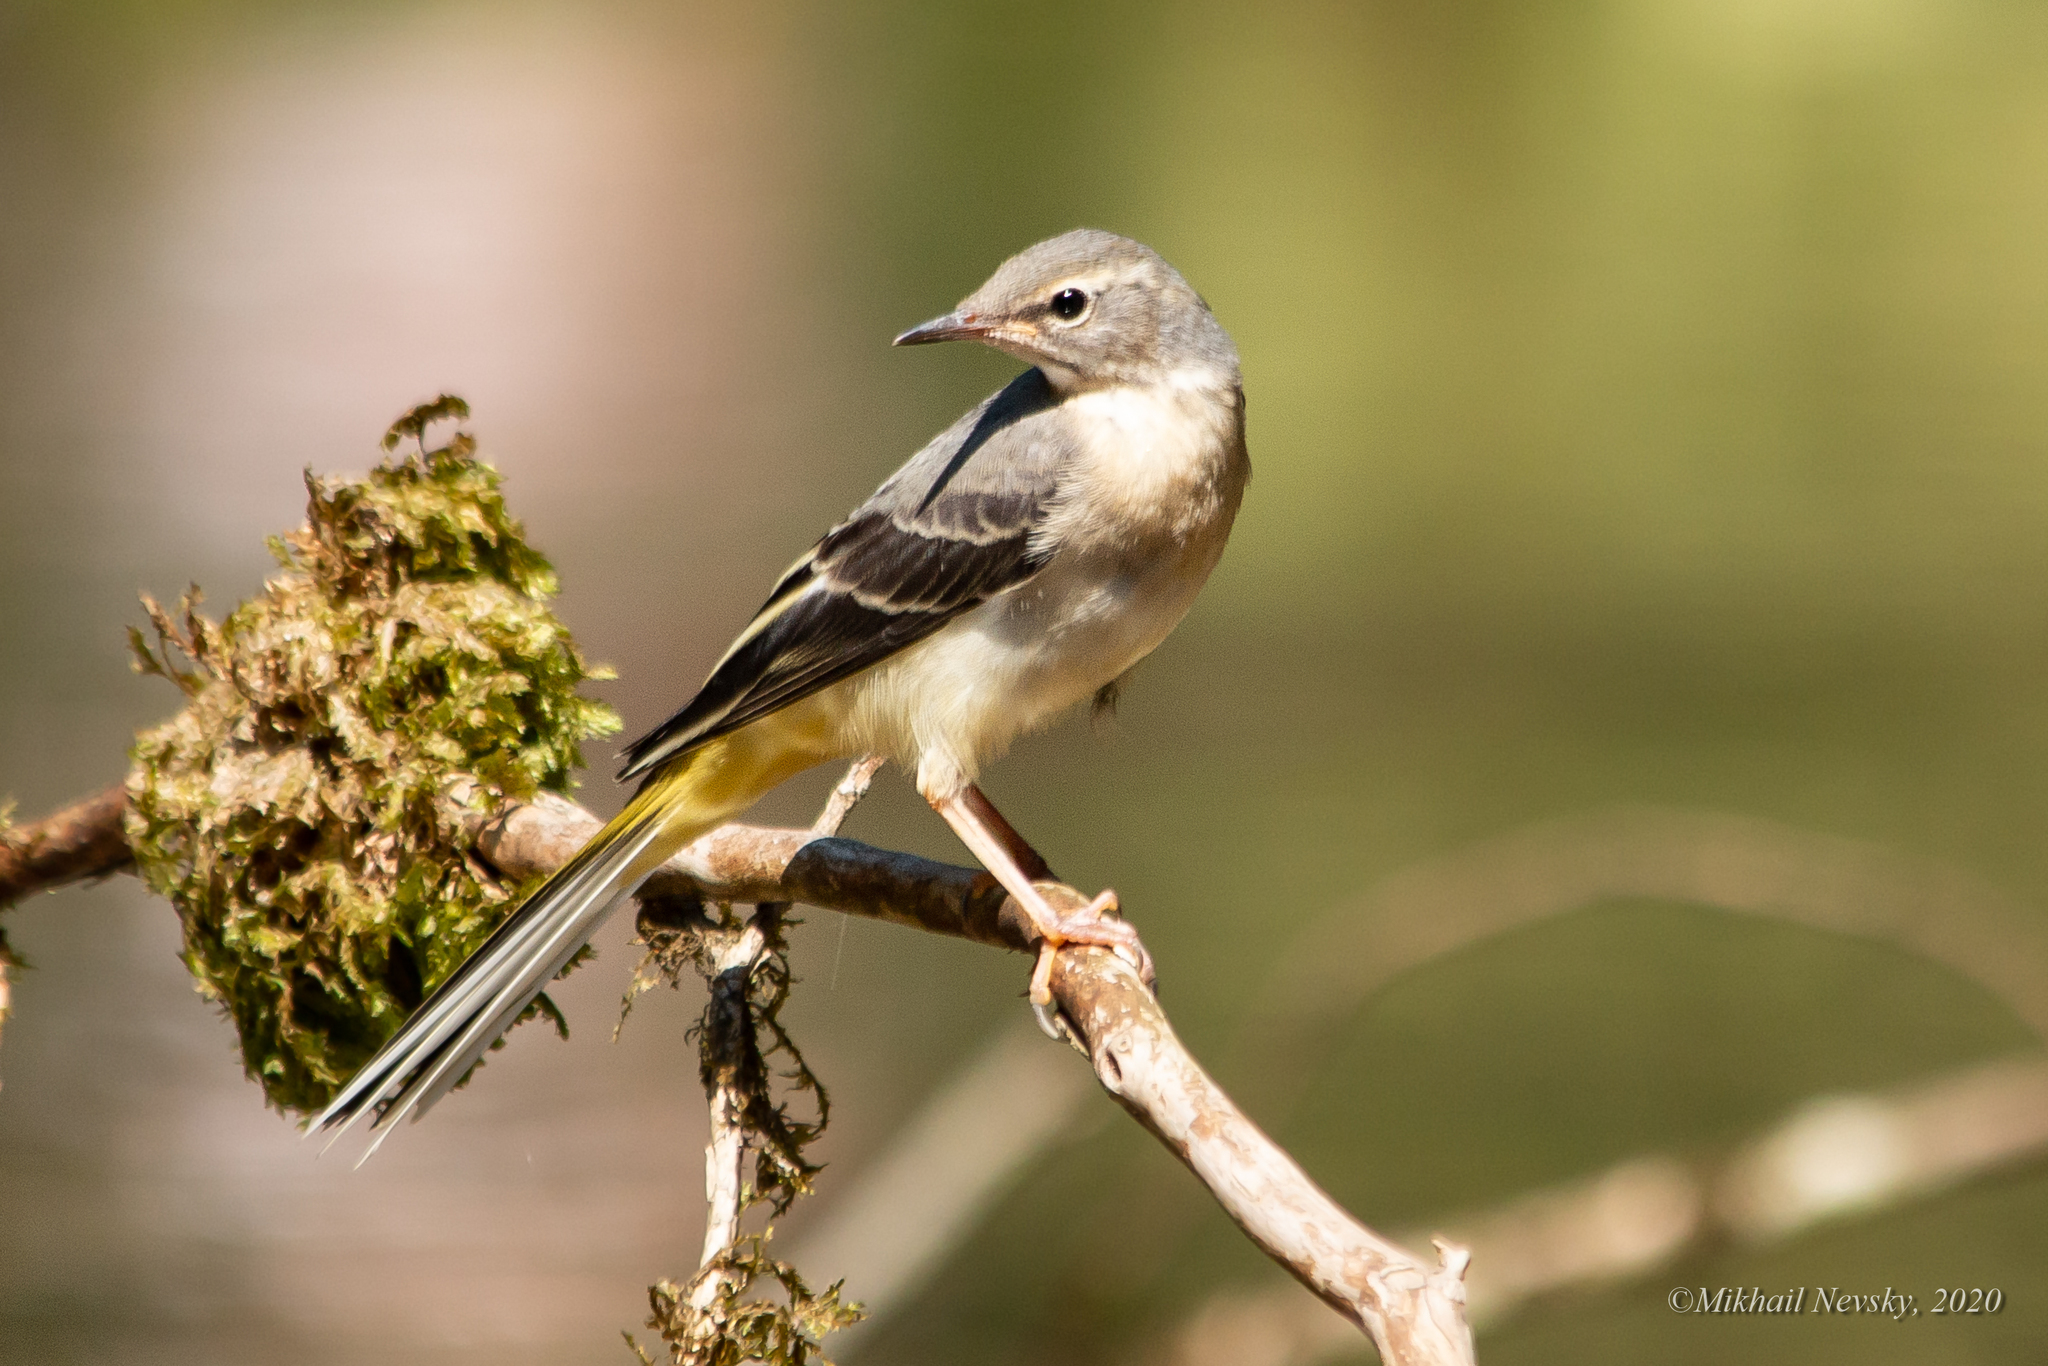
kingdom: Animalia
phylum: Chordata
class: Aves
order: Passeriformes
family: Motacillidae
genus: Motacilla
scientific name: Motacilla cinerea
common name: Grey wagtail
